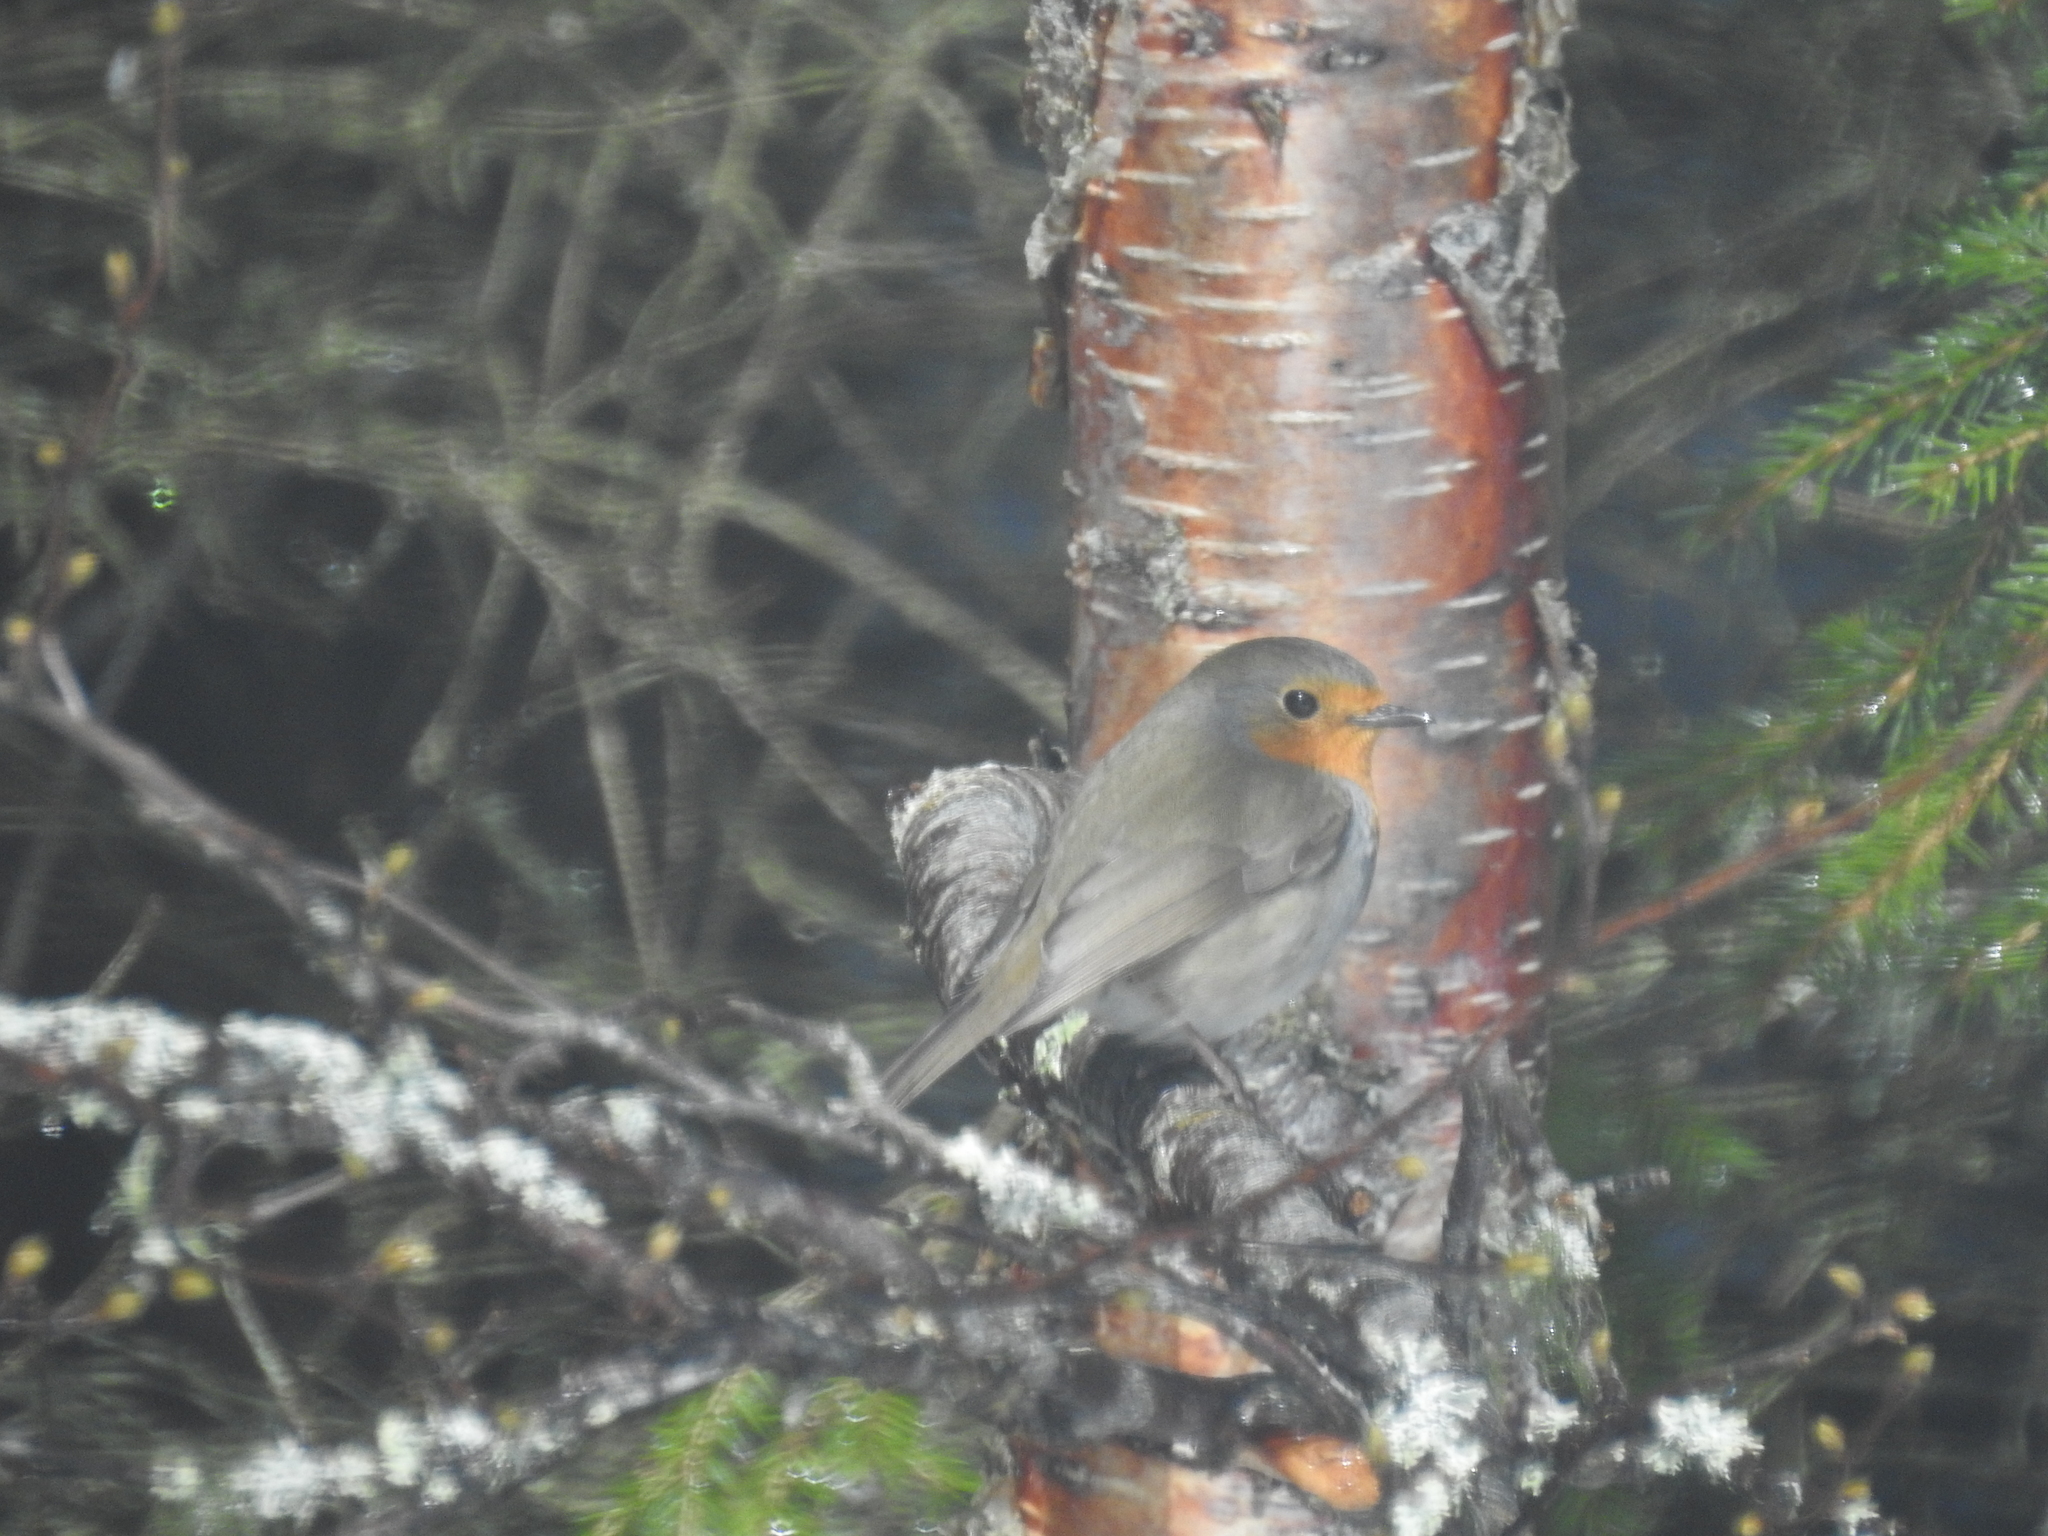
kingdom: Animalia
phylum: Chordata
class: Aves
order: Passeriformes
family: Muscicapidae
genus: Erithacus
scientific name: Erithacus rubecula
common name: European robin
